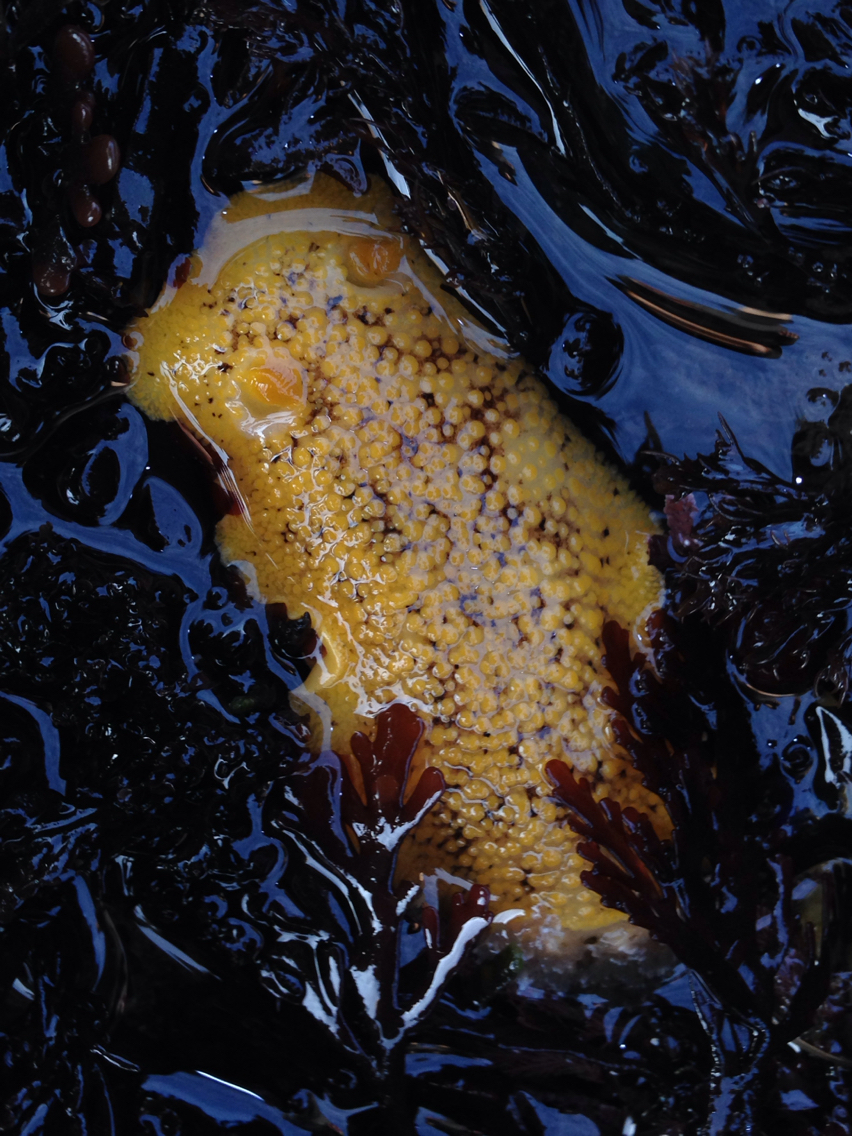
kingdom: Animalia
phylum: Mollusca
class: Gastropoda
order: Nudibranchia
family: Discodorididae
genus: Peltodoris
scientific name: Peltodoris nobilis
